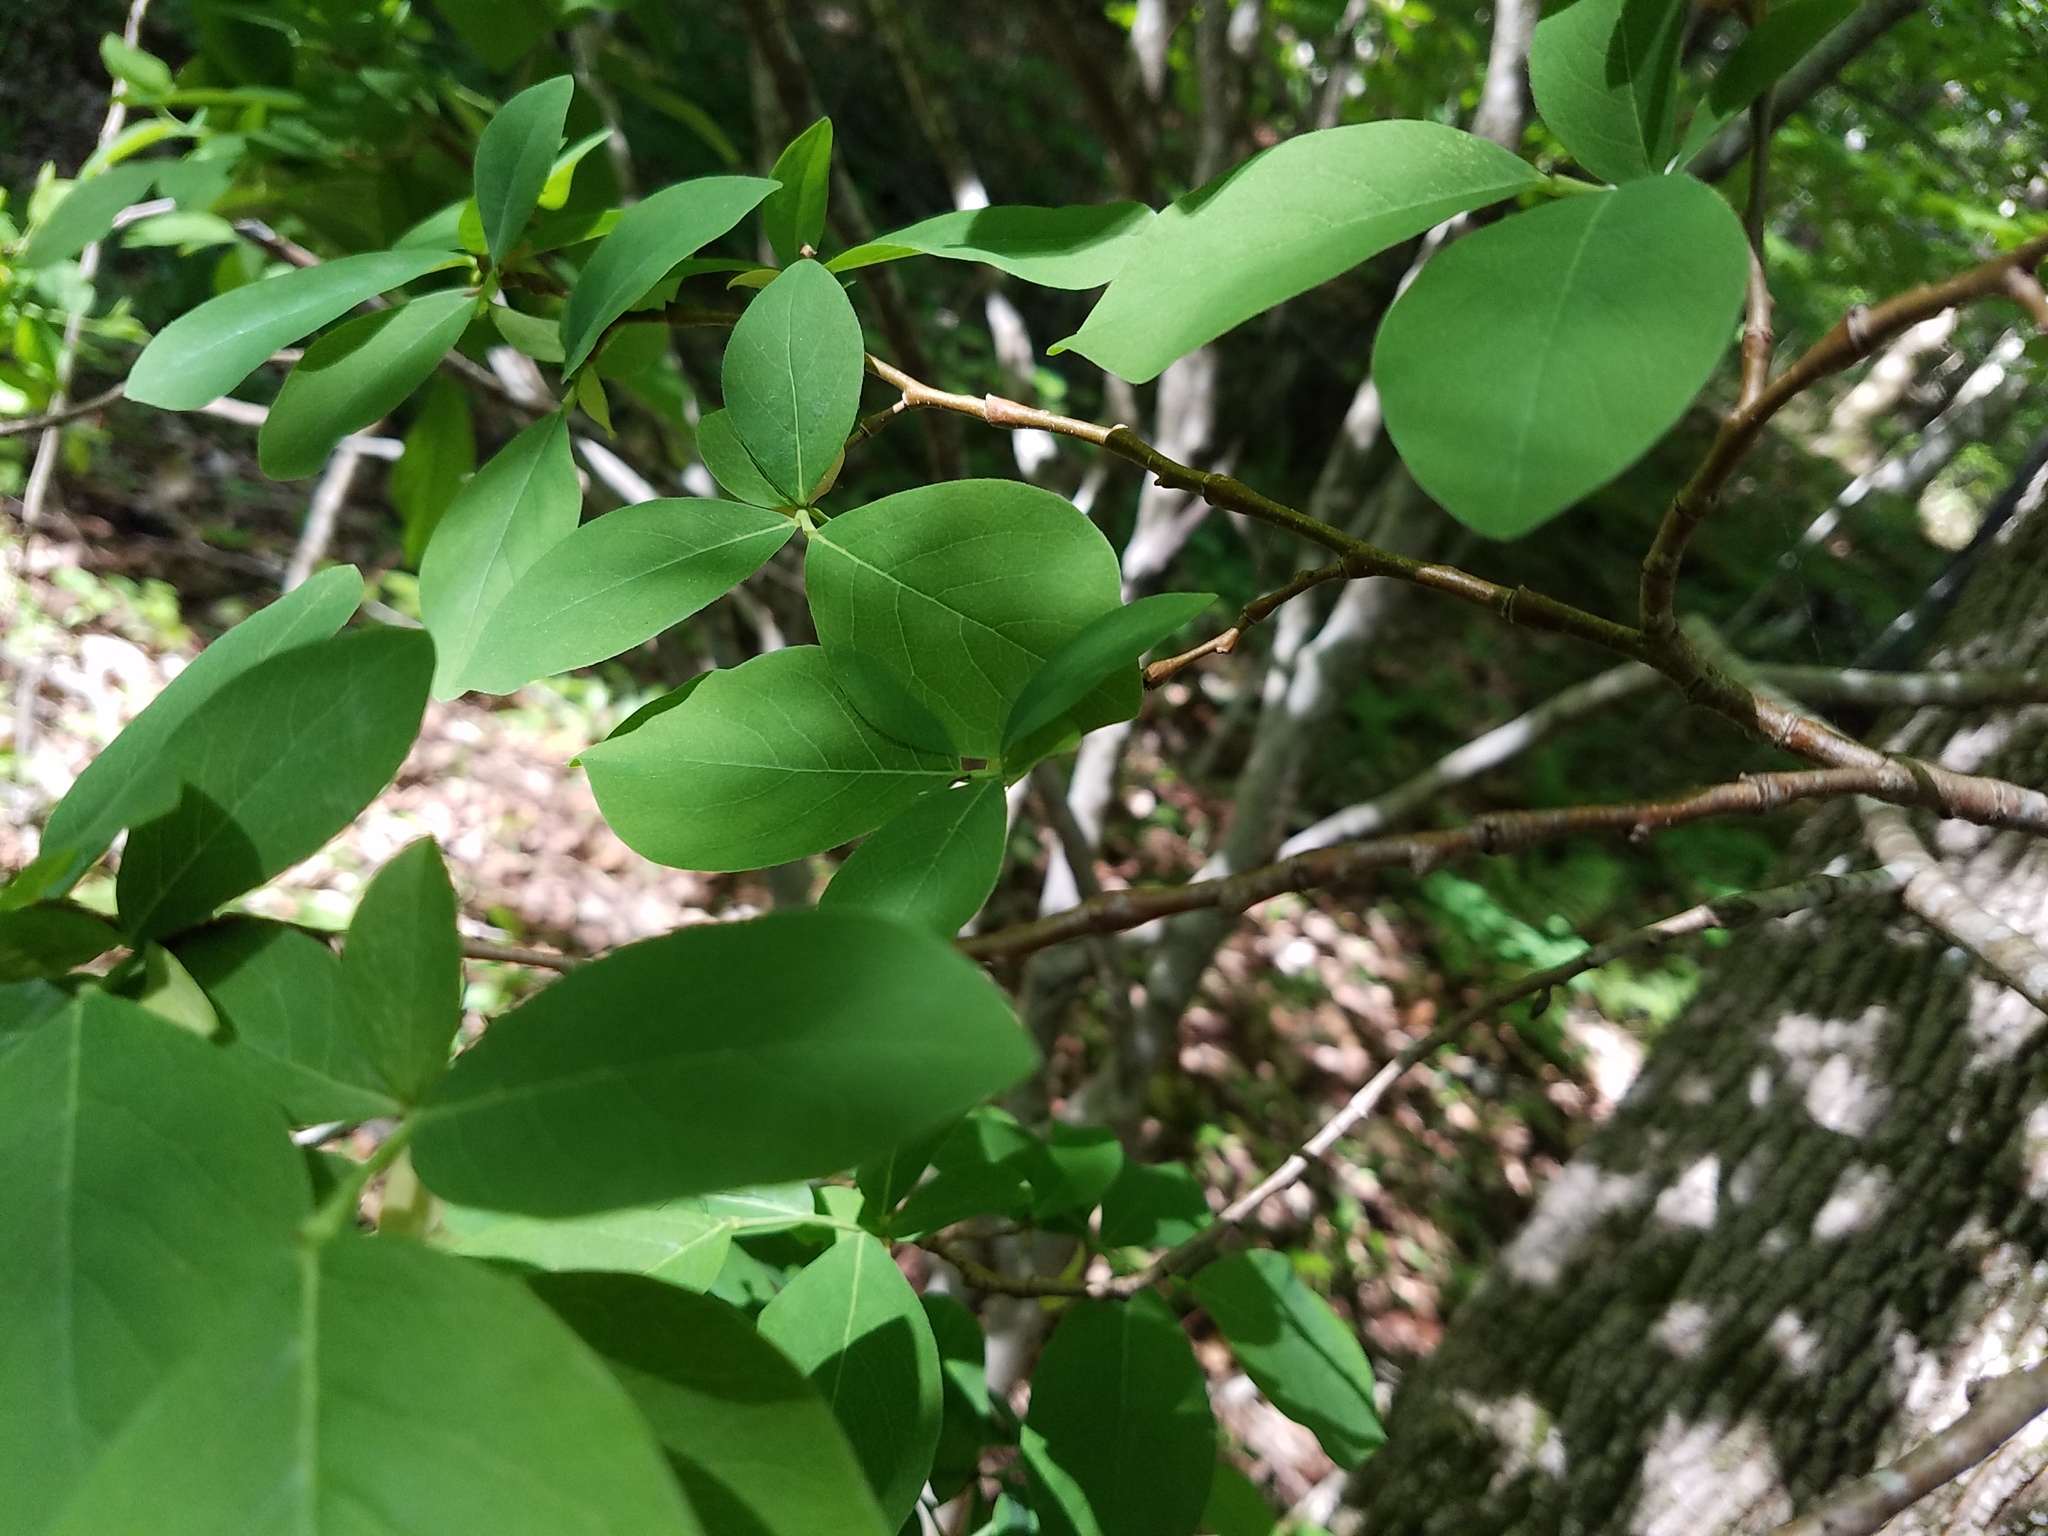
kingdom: Plantae
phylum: Tracheophyta
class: Magnoliopsida
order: Malvales
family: Thymelaeaceae
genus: Dirca
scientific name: Dirca palustris
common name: Leatherwood
